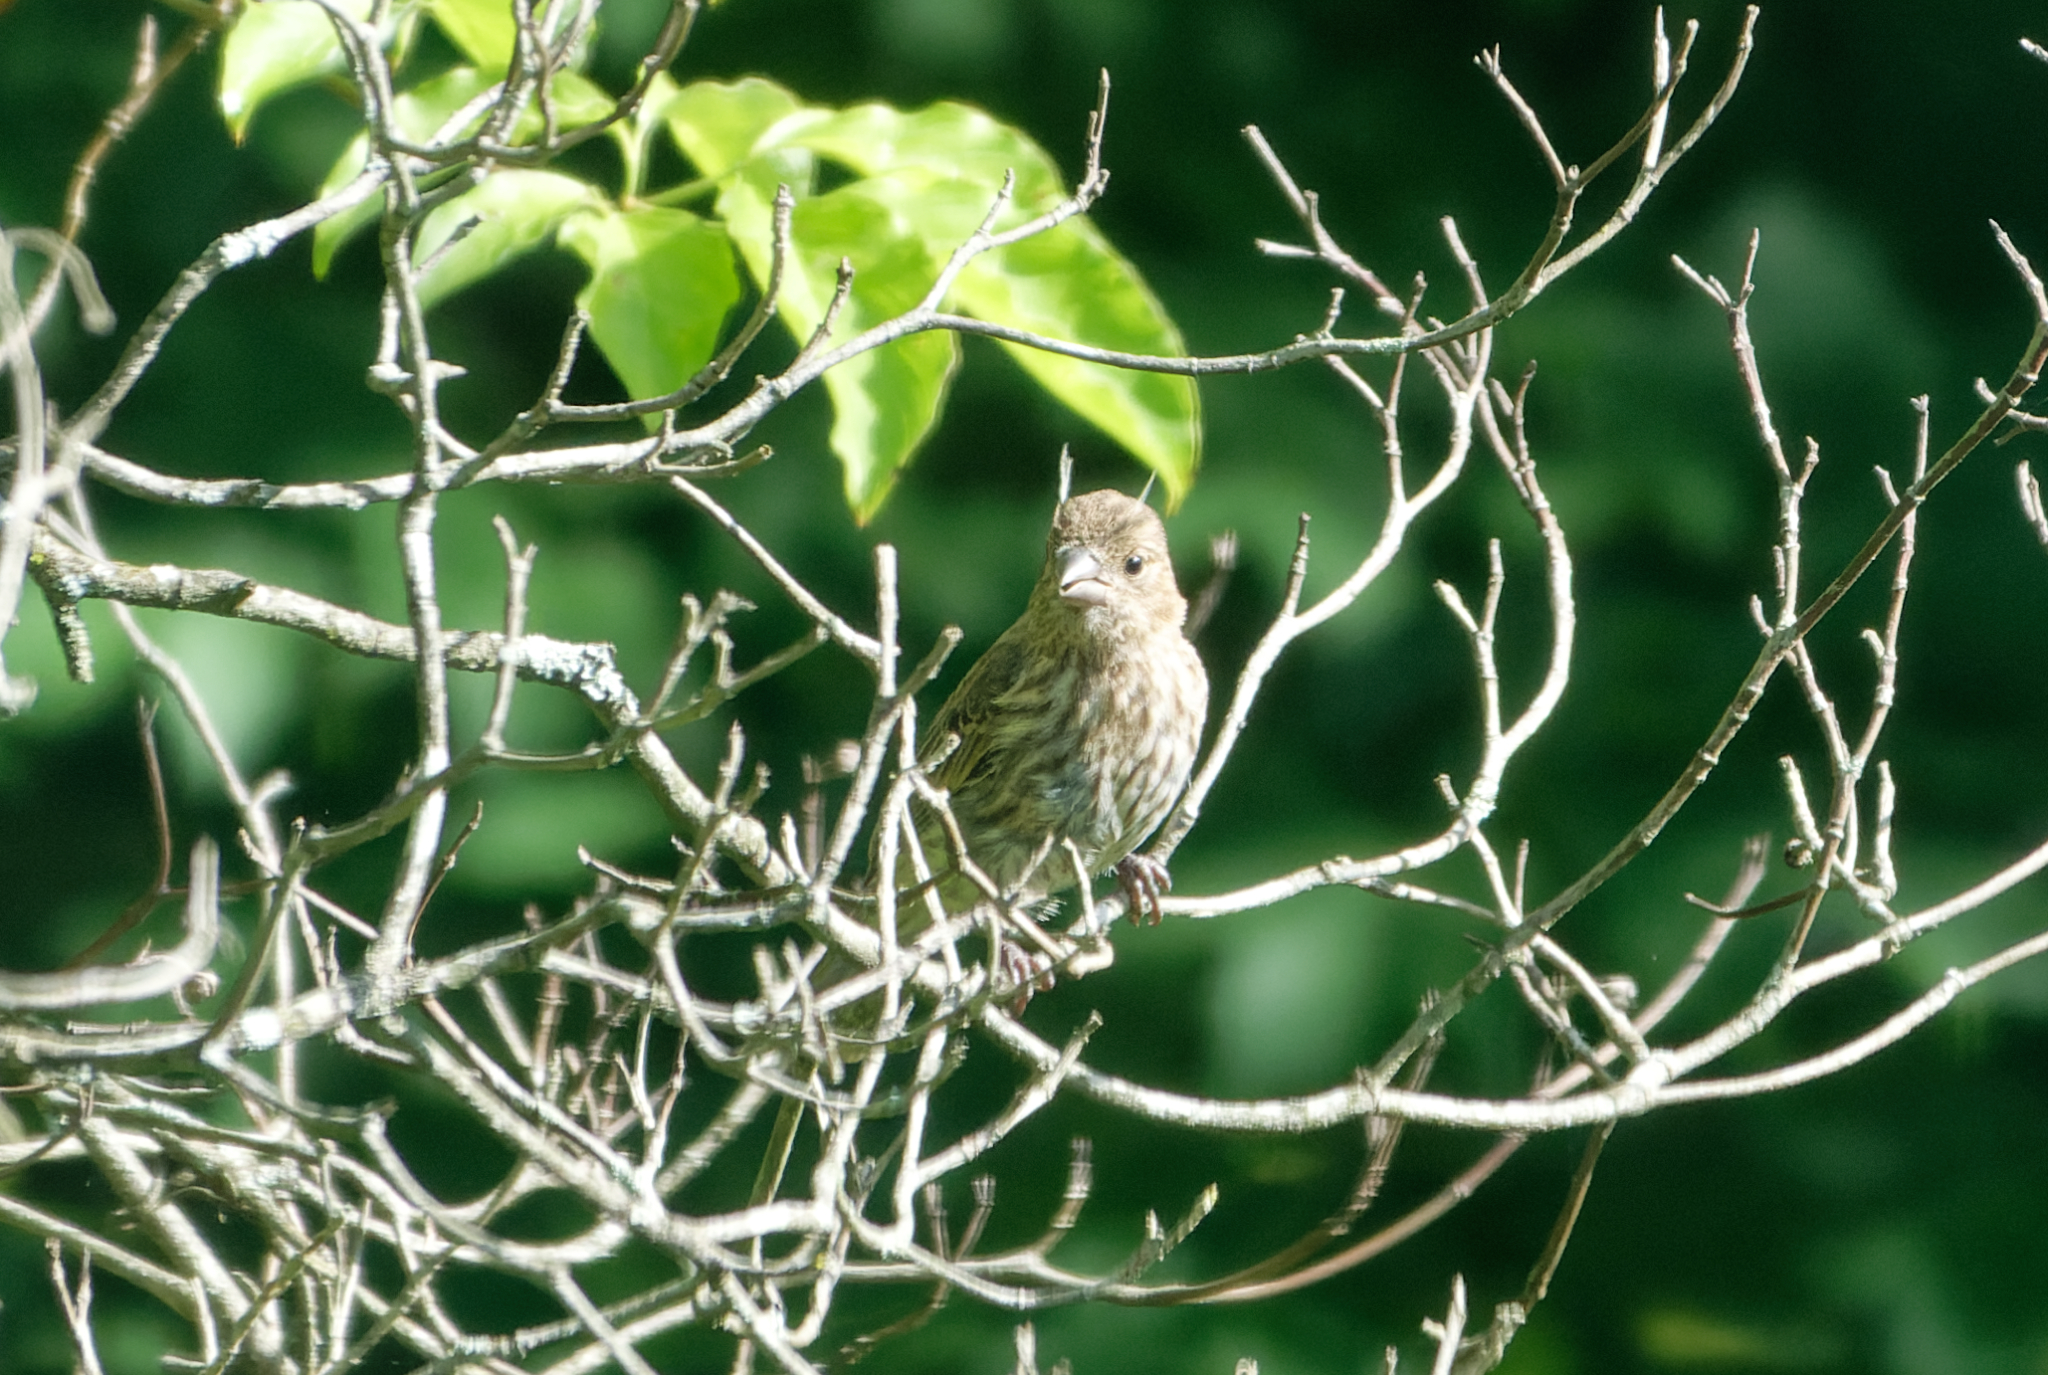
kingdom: Animalia
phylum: Chordata
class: Aves
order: Passeriformes
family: Fringillidae
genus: Haemorhous
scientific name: Haemorhous mexicanus
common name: House finch
